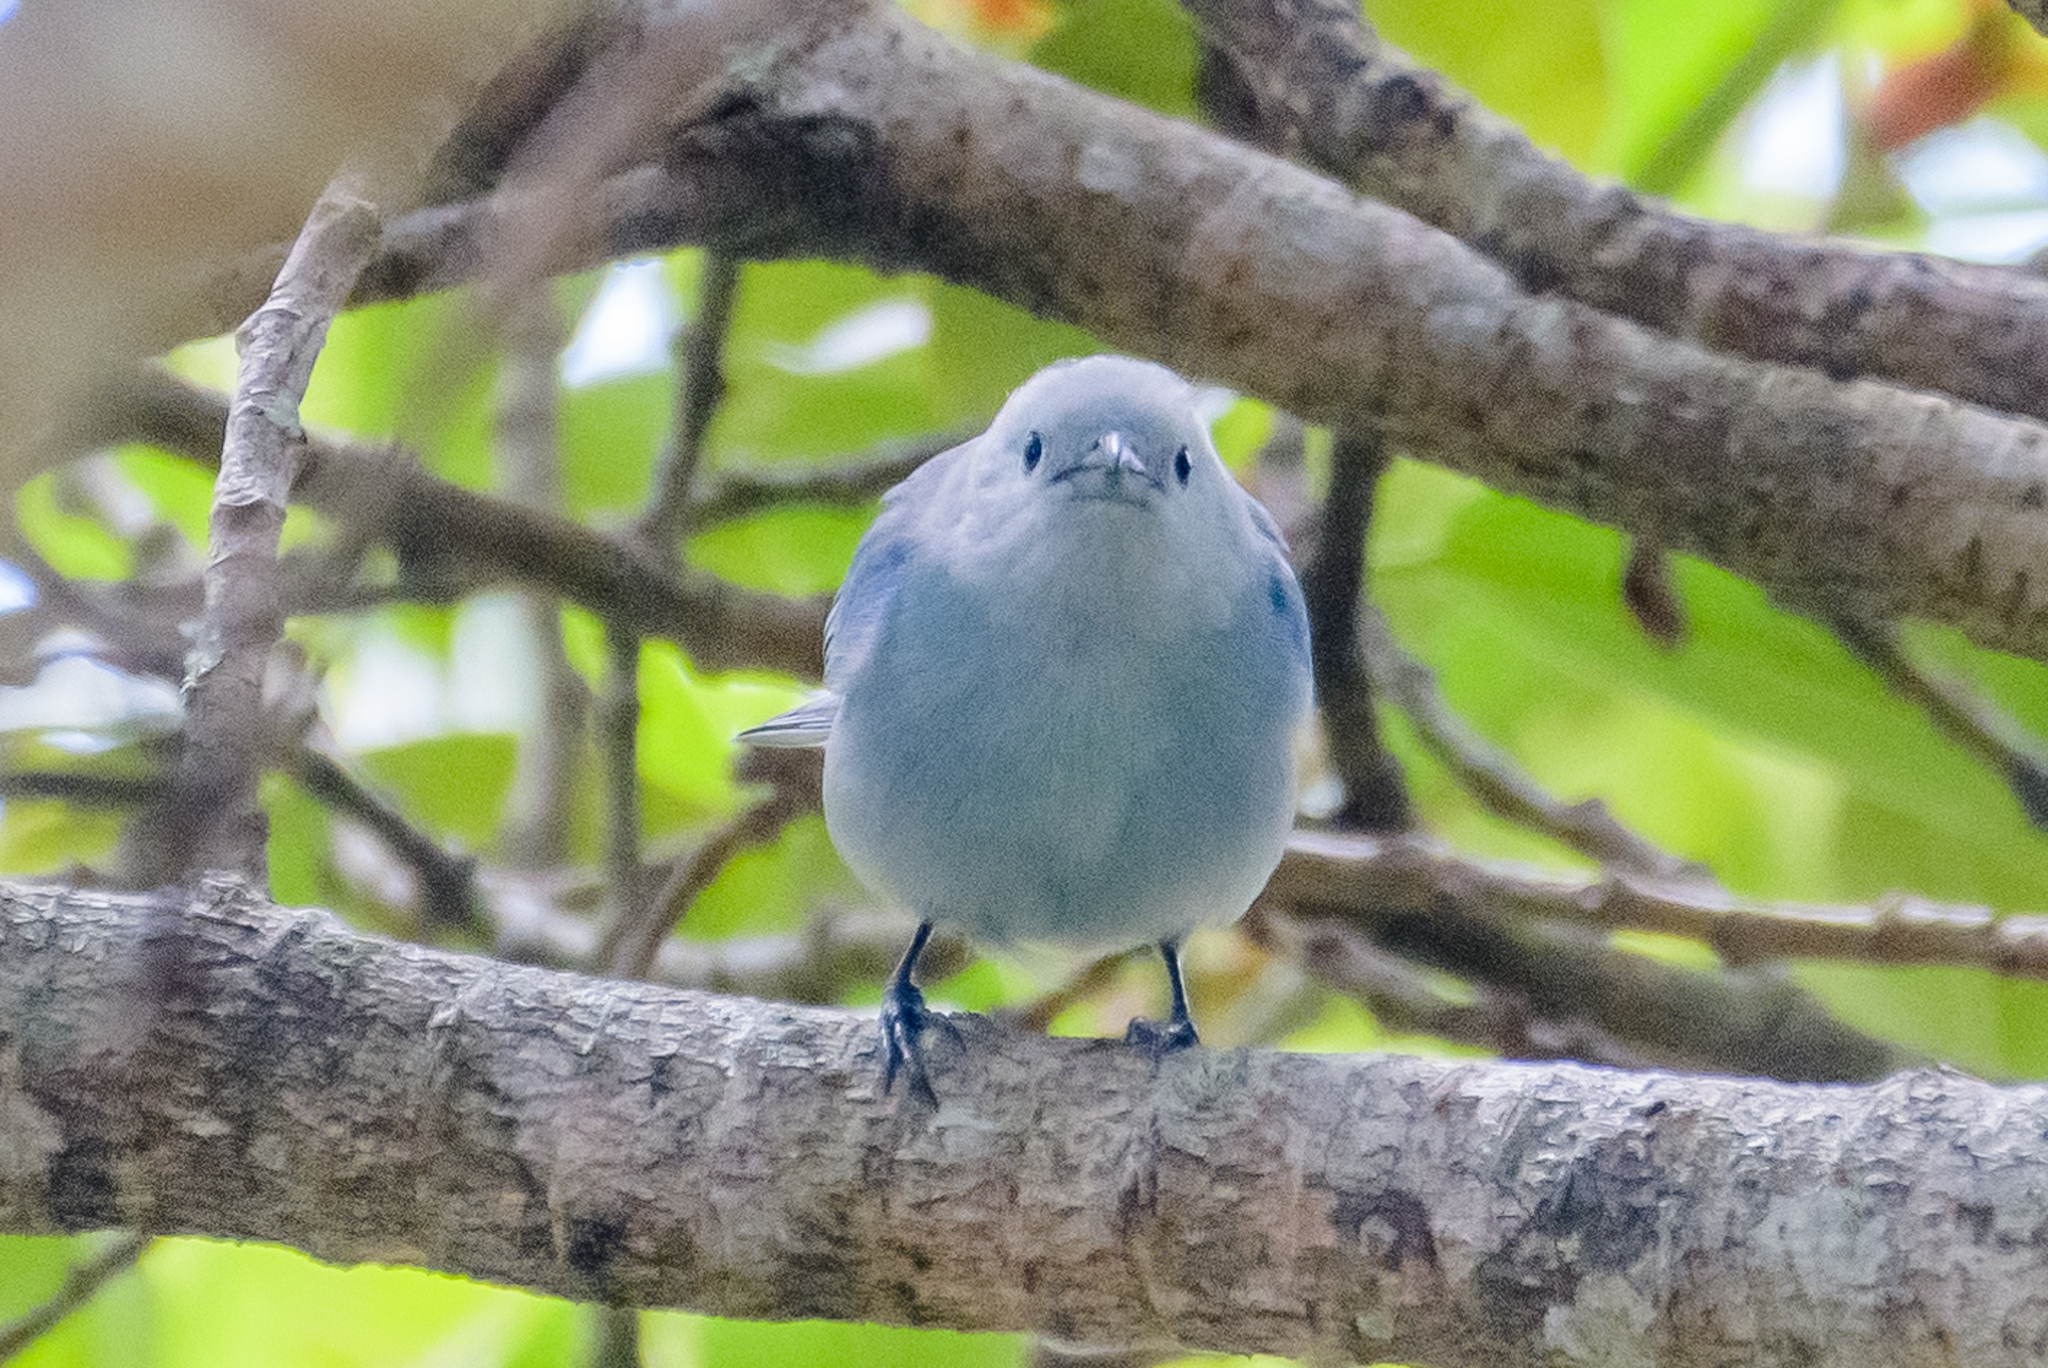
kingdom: Animalia
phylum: Chordata
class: Aves
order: Passeriformes
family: Thraupidae
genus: Thraupis
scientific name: Thraupis episcopus
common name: Blue-grey tanager
